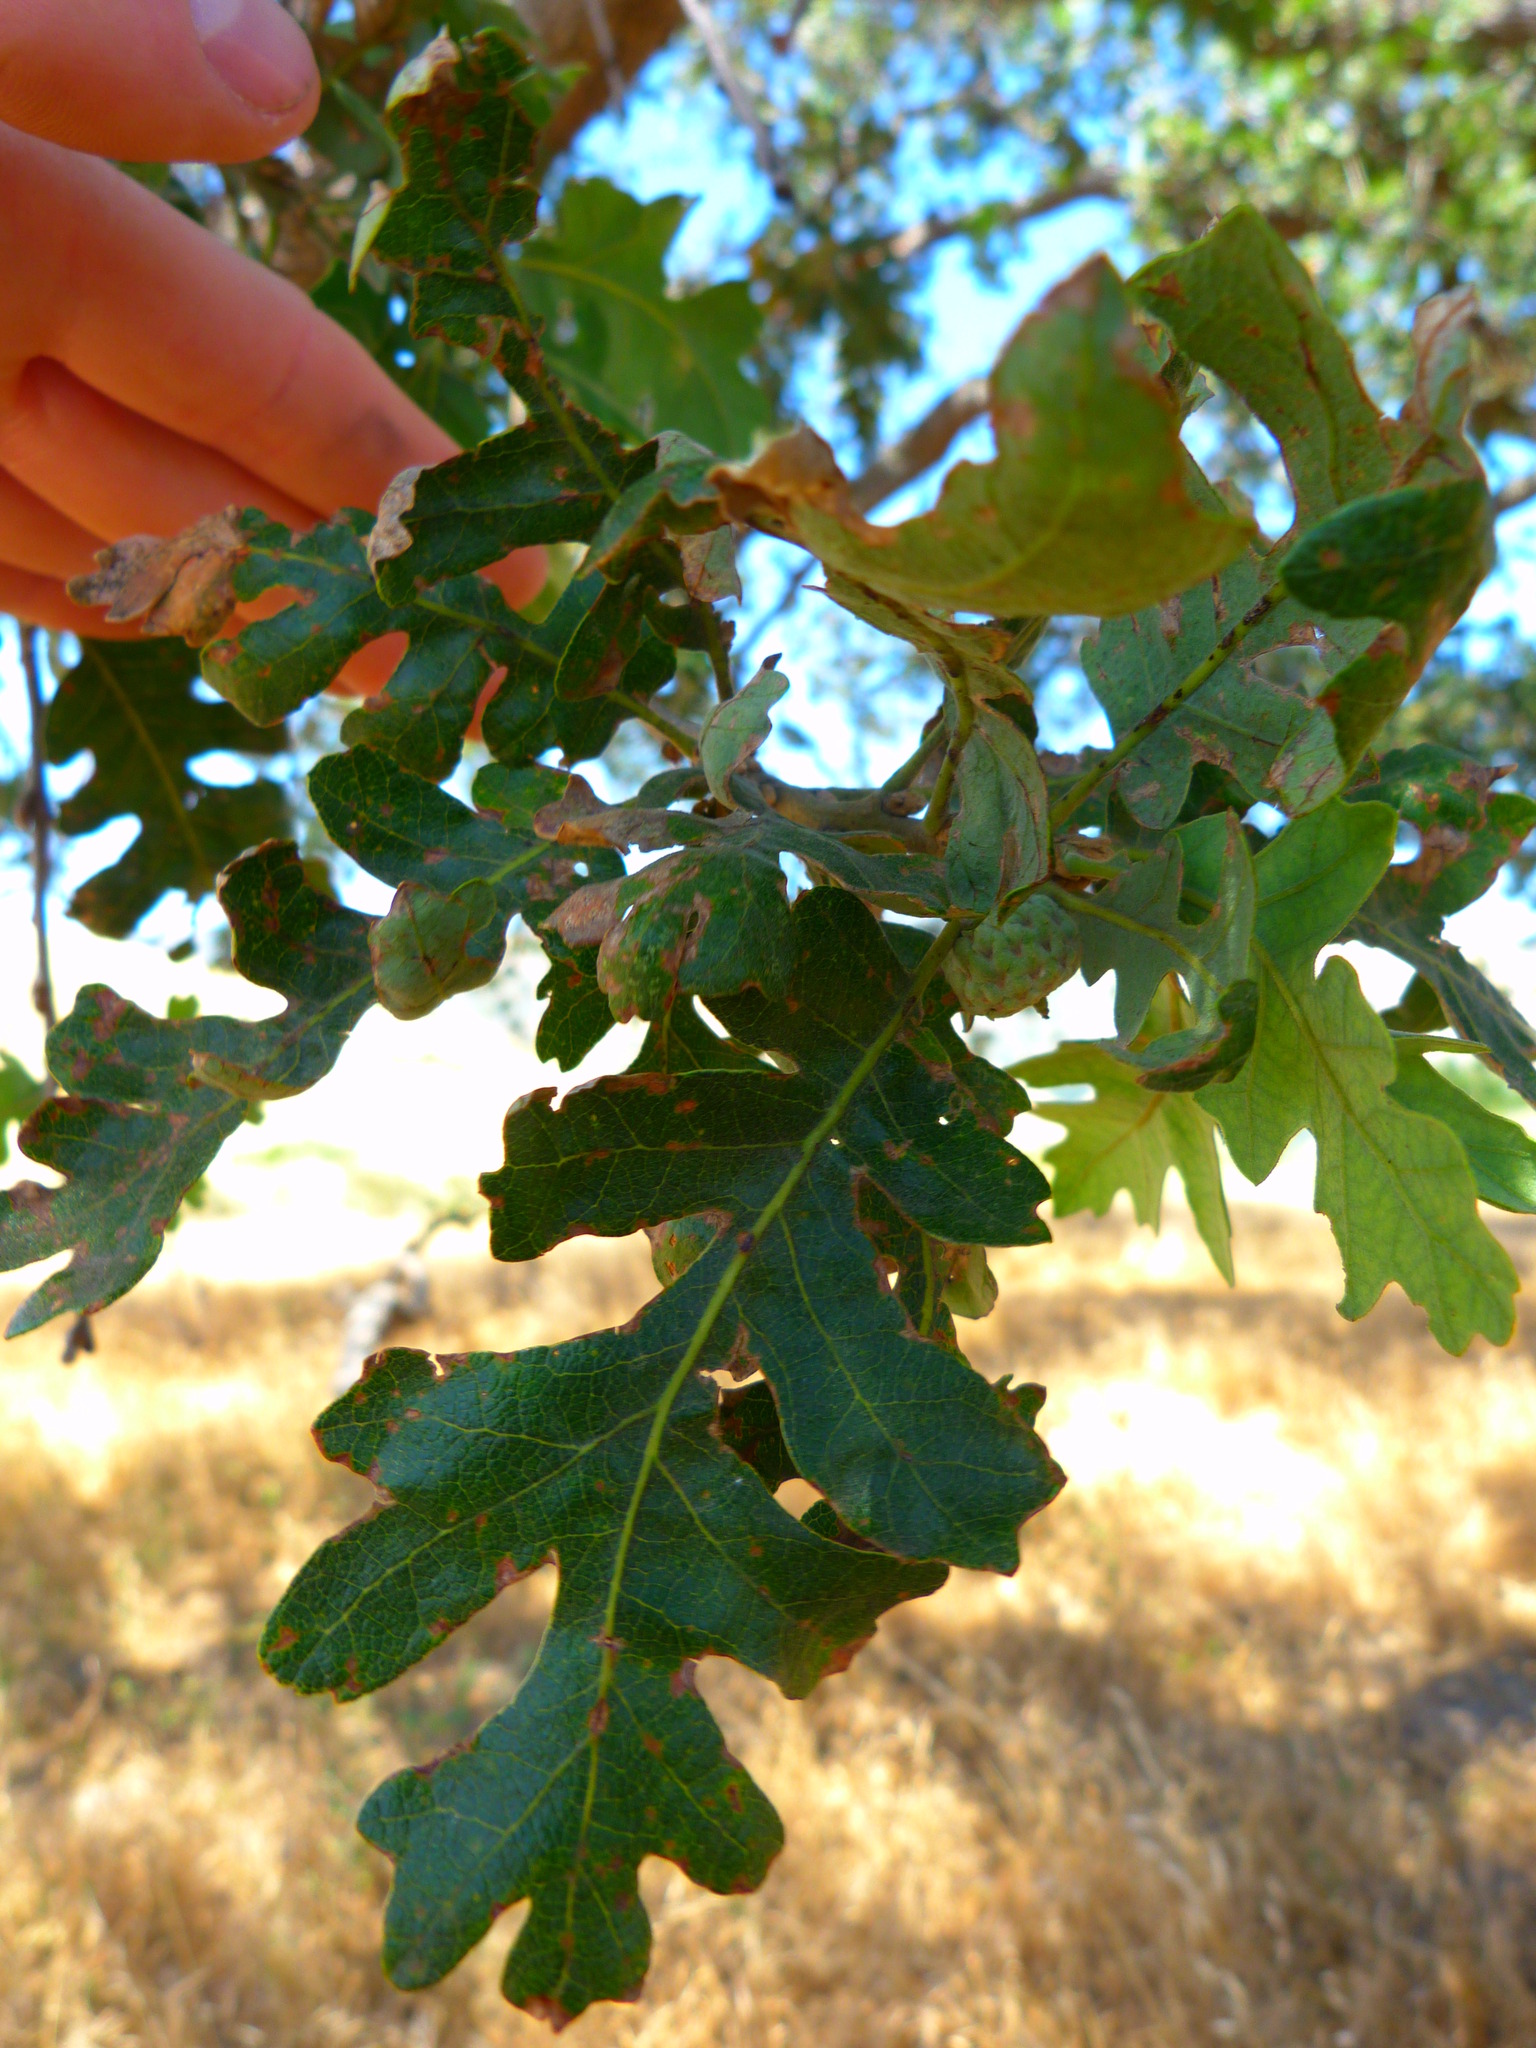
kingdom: Plantae
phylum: Tracheophyta
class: Magnoliopsida
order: Fagales
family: Fagaceae
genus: Quercus
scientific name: Quercus lobata
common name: Valley oak
